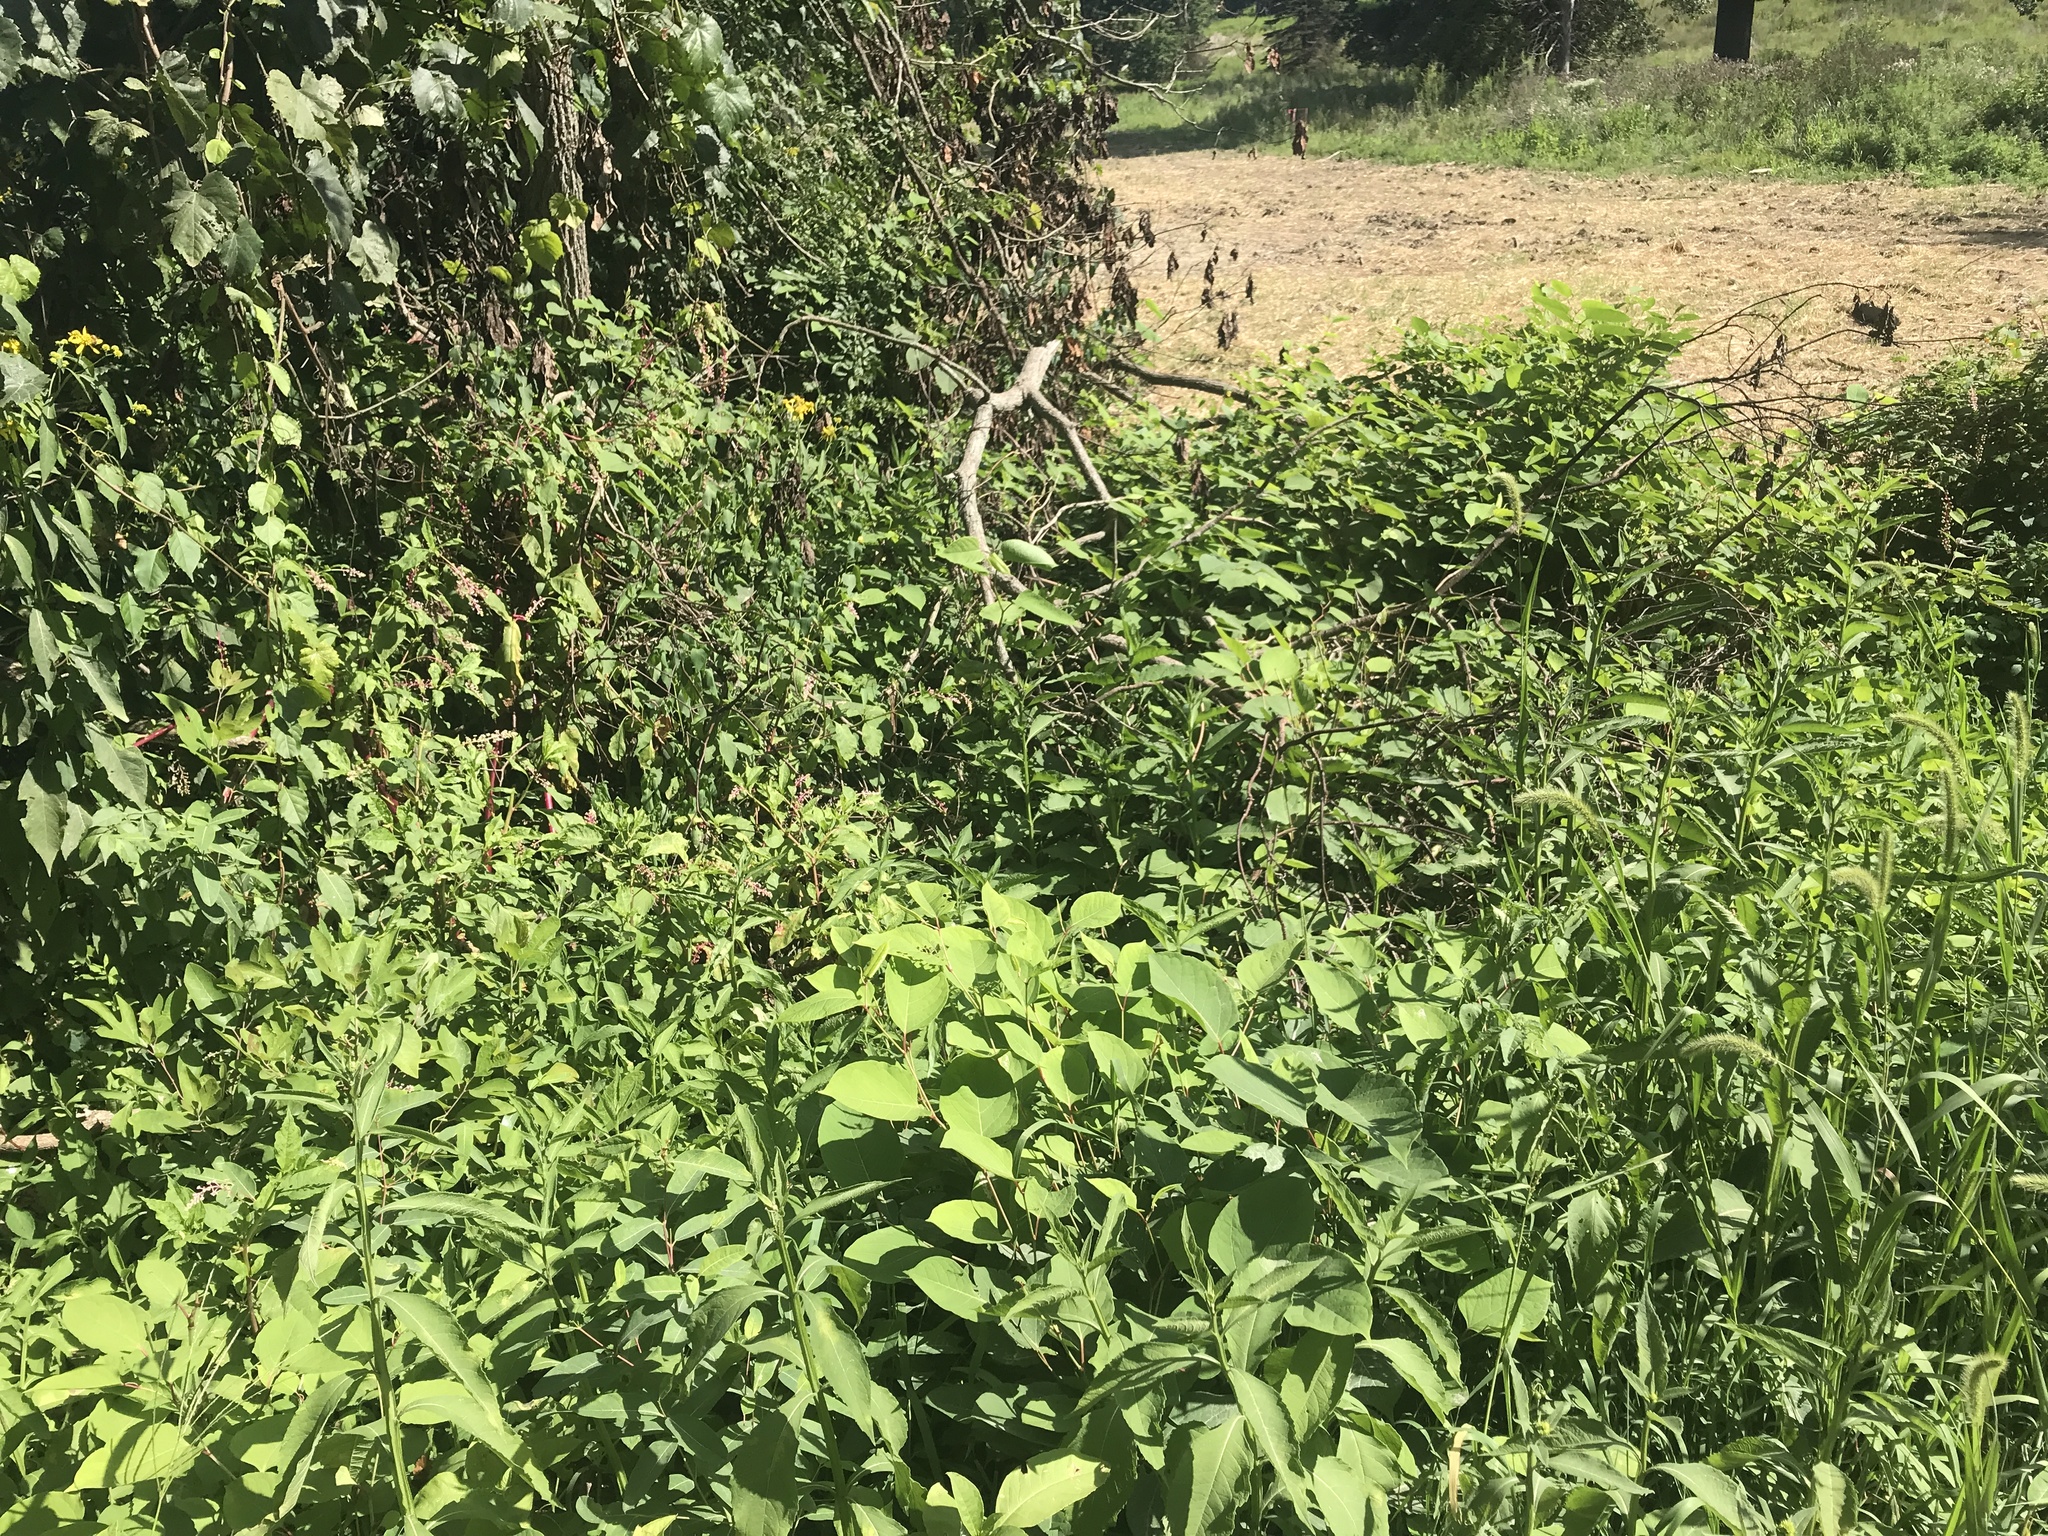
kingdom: Plantae
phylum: Tracheophyta
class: Magnoliopsida
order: Caryophyllales
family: Polygonaceae
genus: Reynoutria
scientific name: Reynoutria japonica
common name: Japanese knotweed
